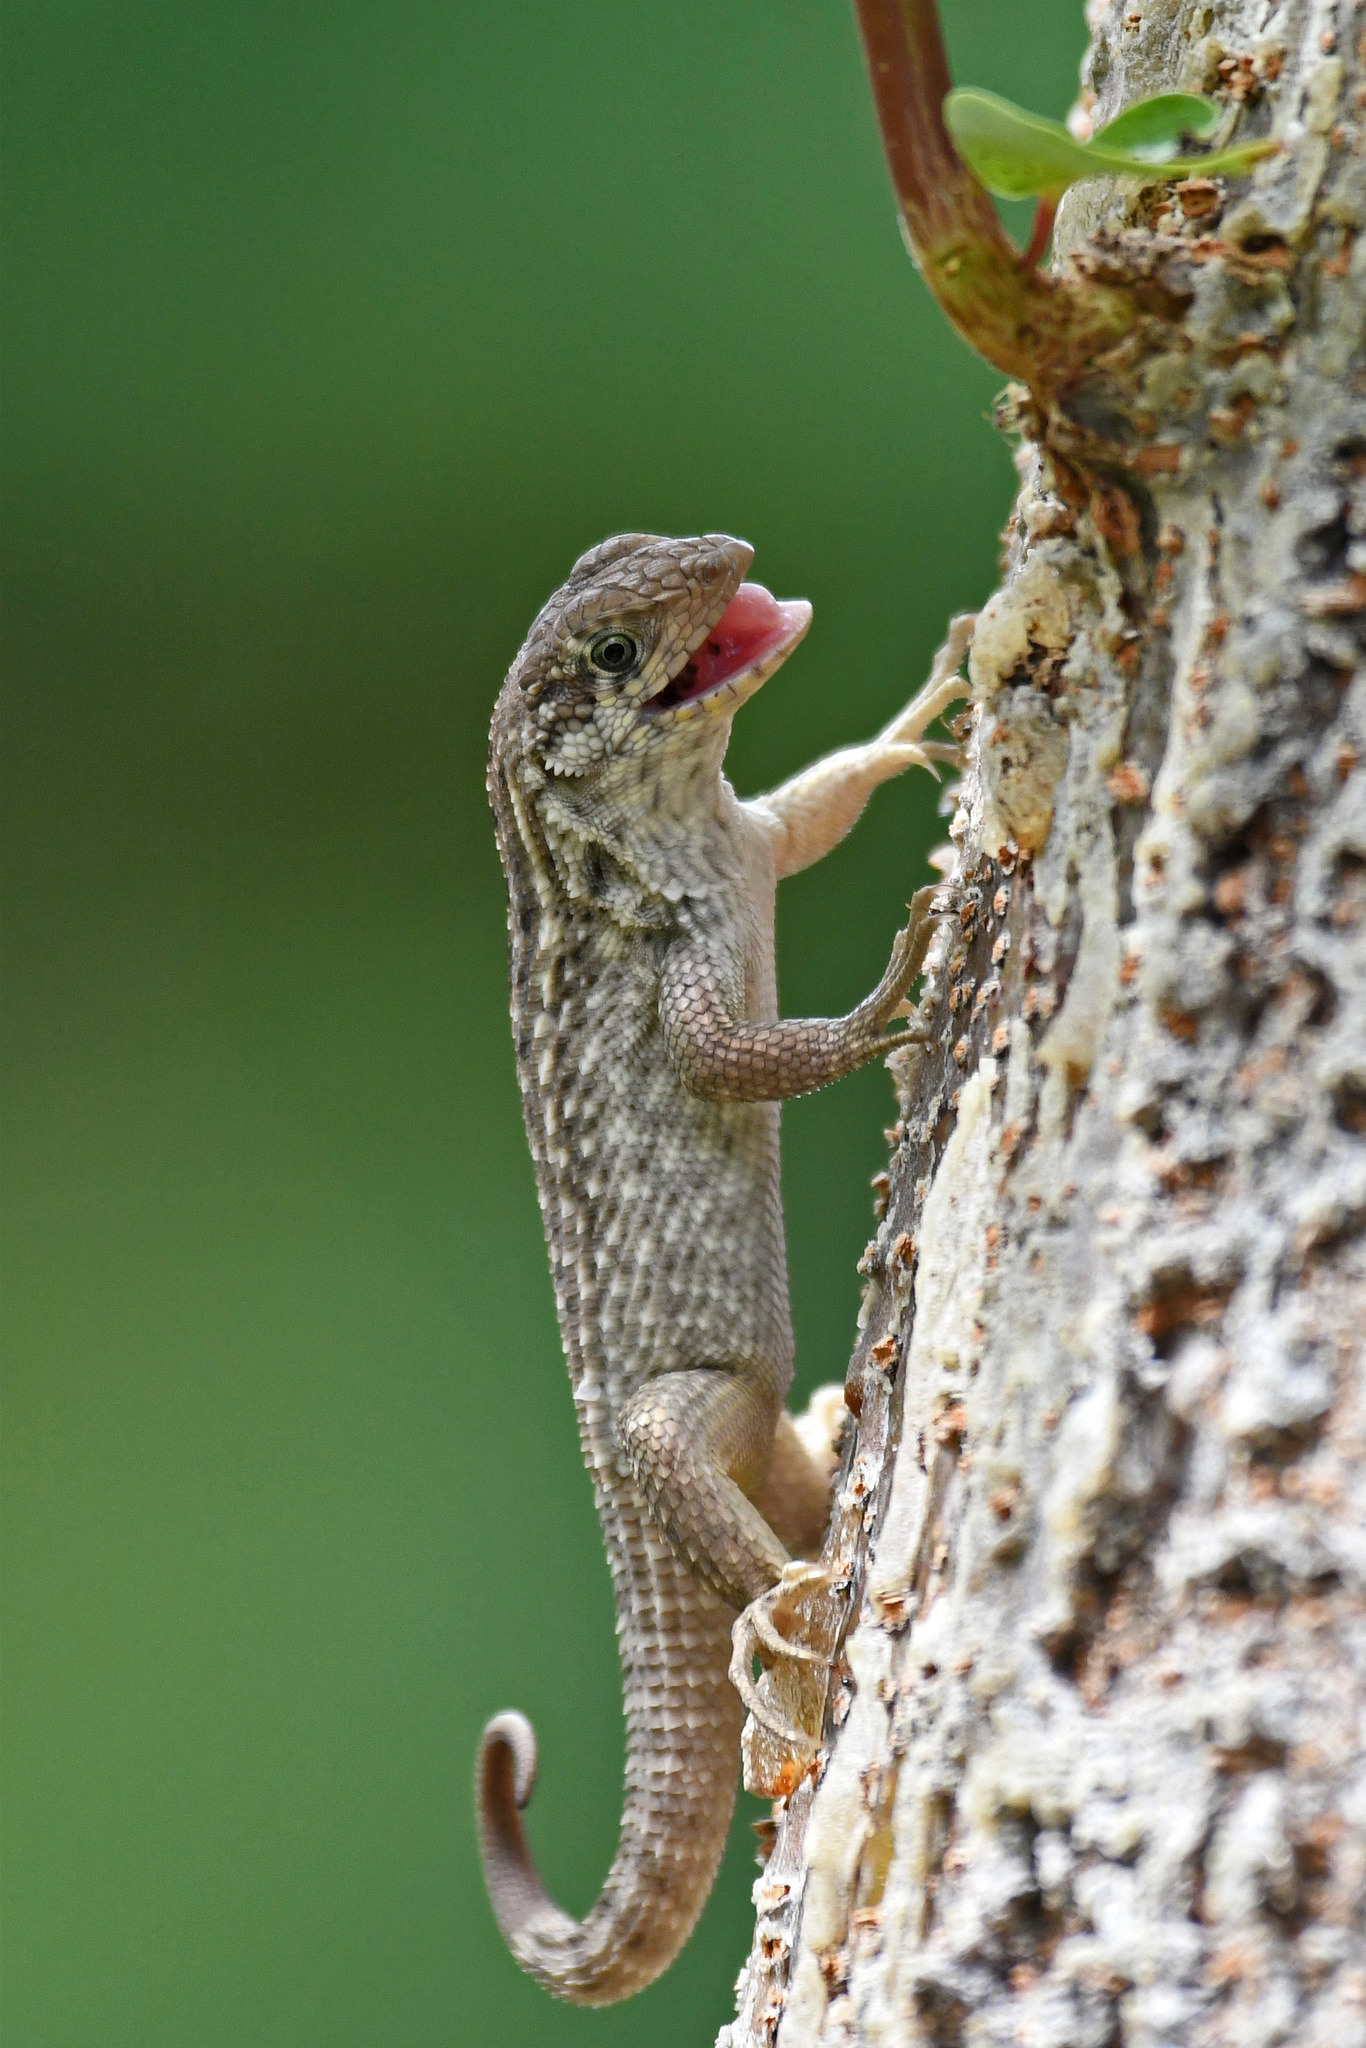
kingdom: Animalia
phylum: Chordata
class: Squamata
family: Leiocephalidae
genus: Leiocephalus
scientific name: Leiocephalus carinatus
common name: Northern curly-tailed lizard
